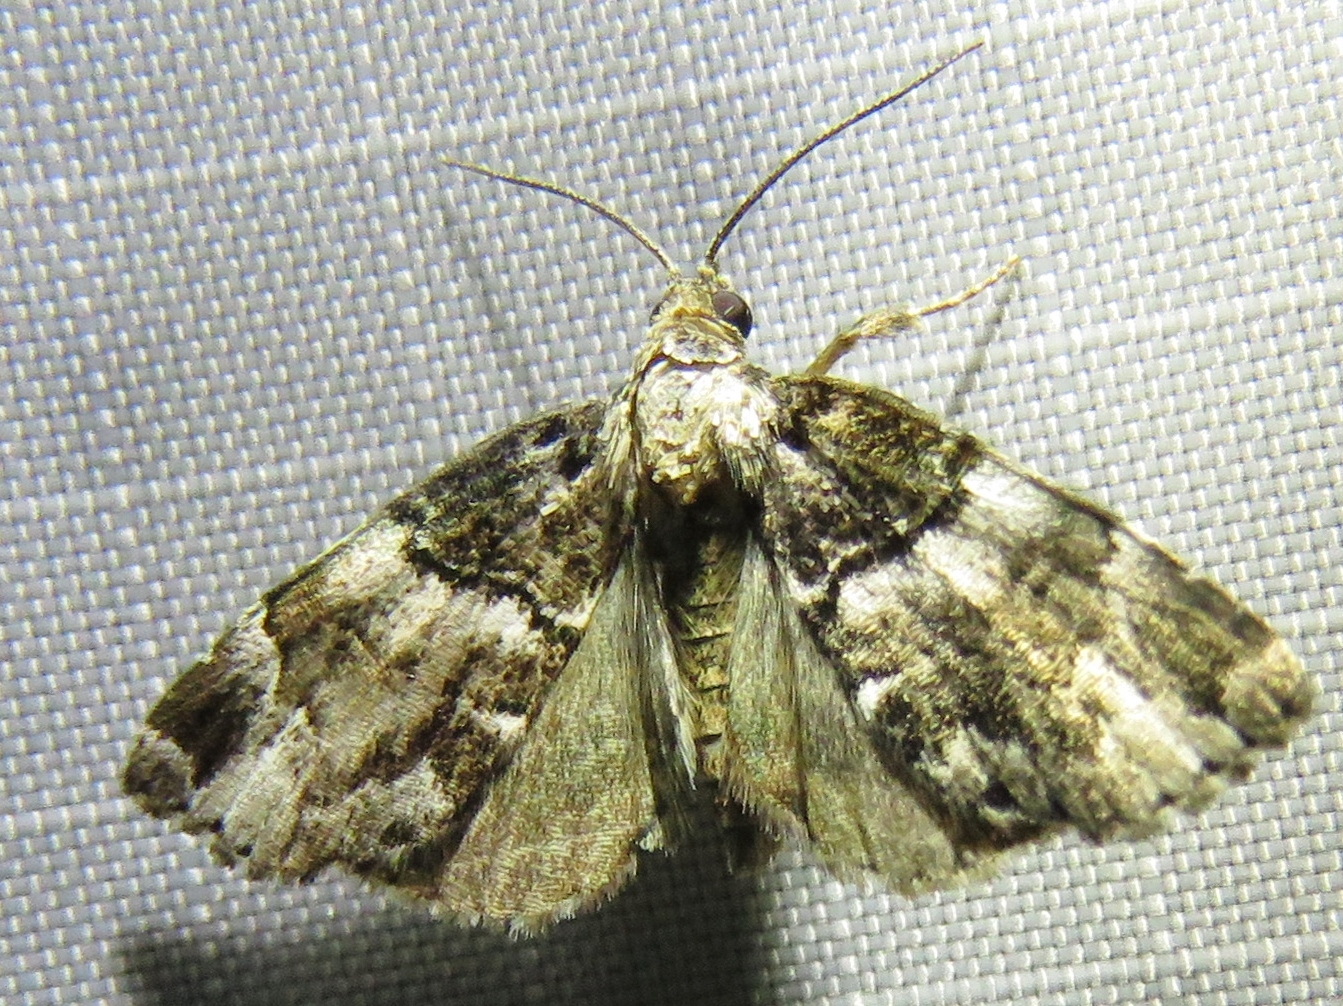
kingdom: Animalia
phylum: Arthropoda
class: Insecta
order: Lepidoptera
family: Erebidae
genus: Cutina
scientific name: Cutina distincta
